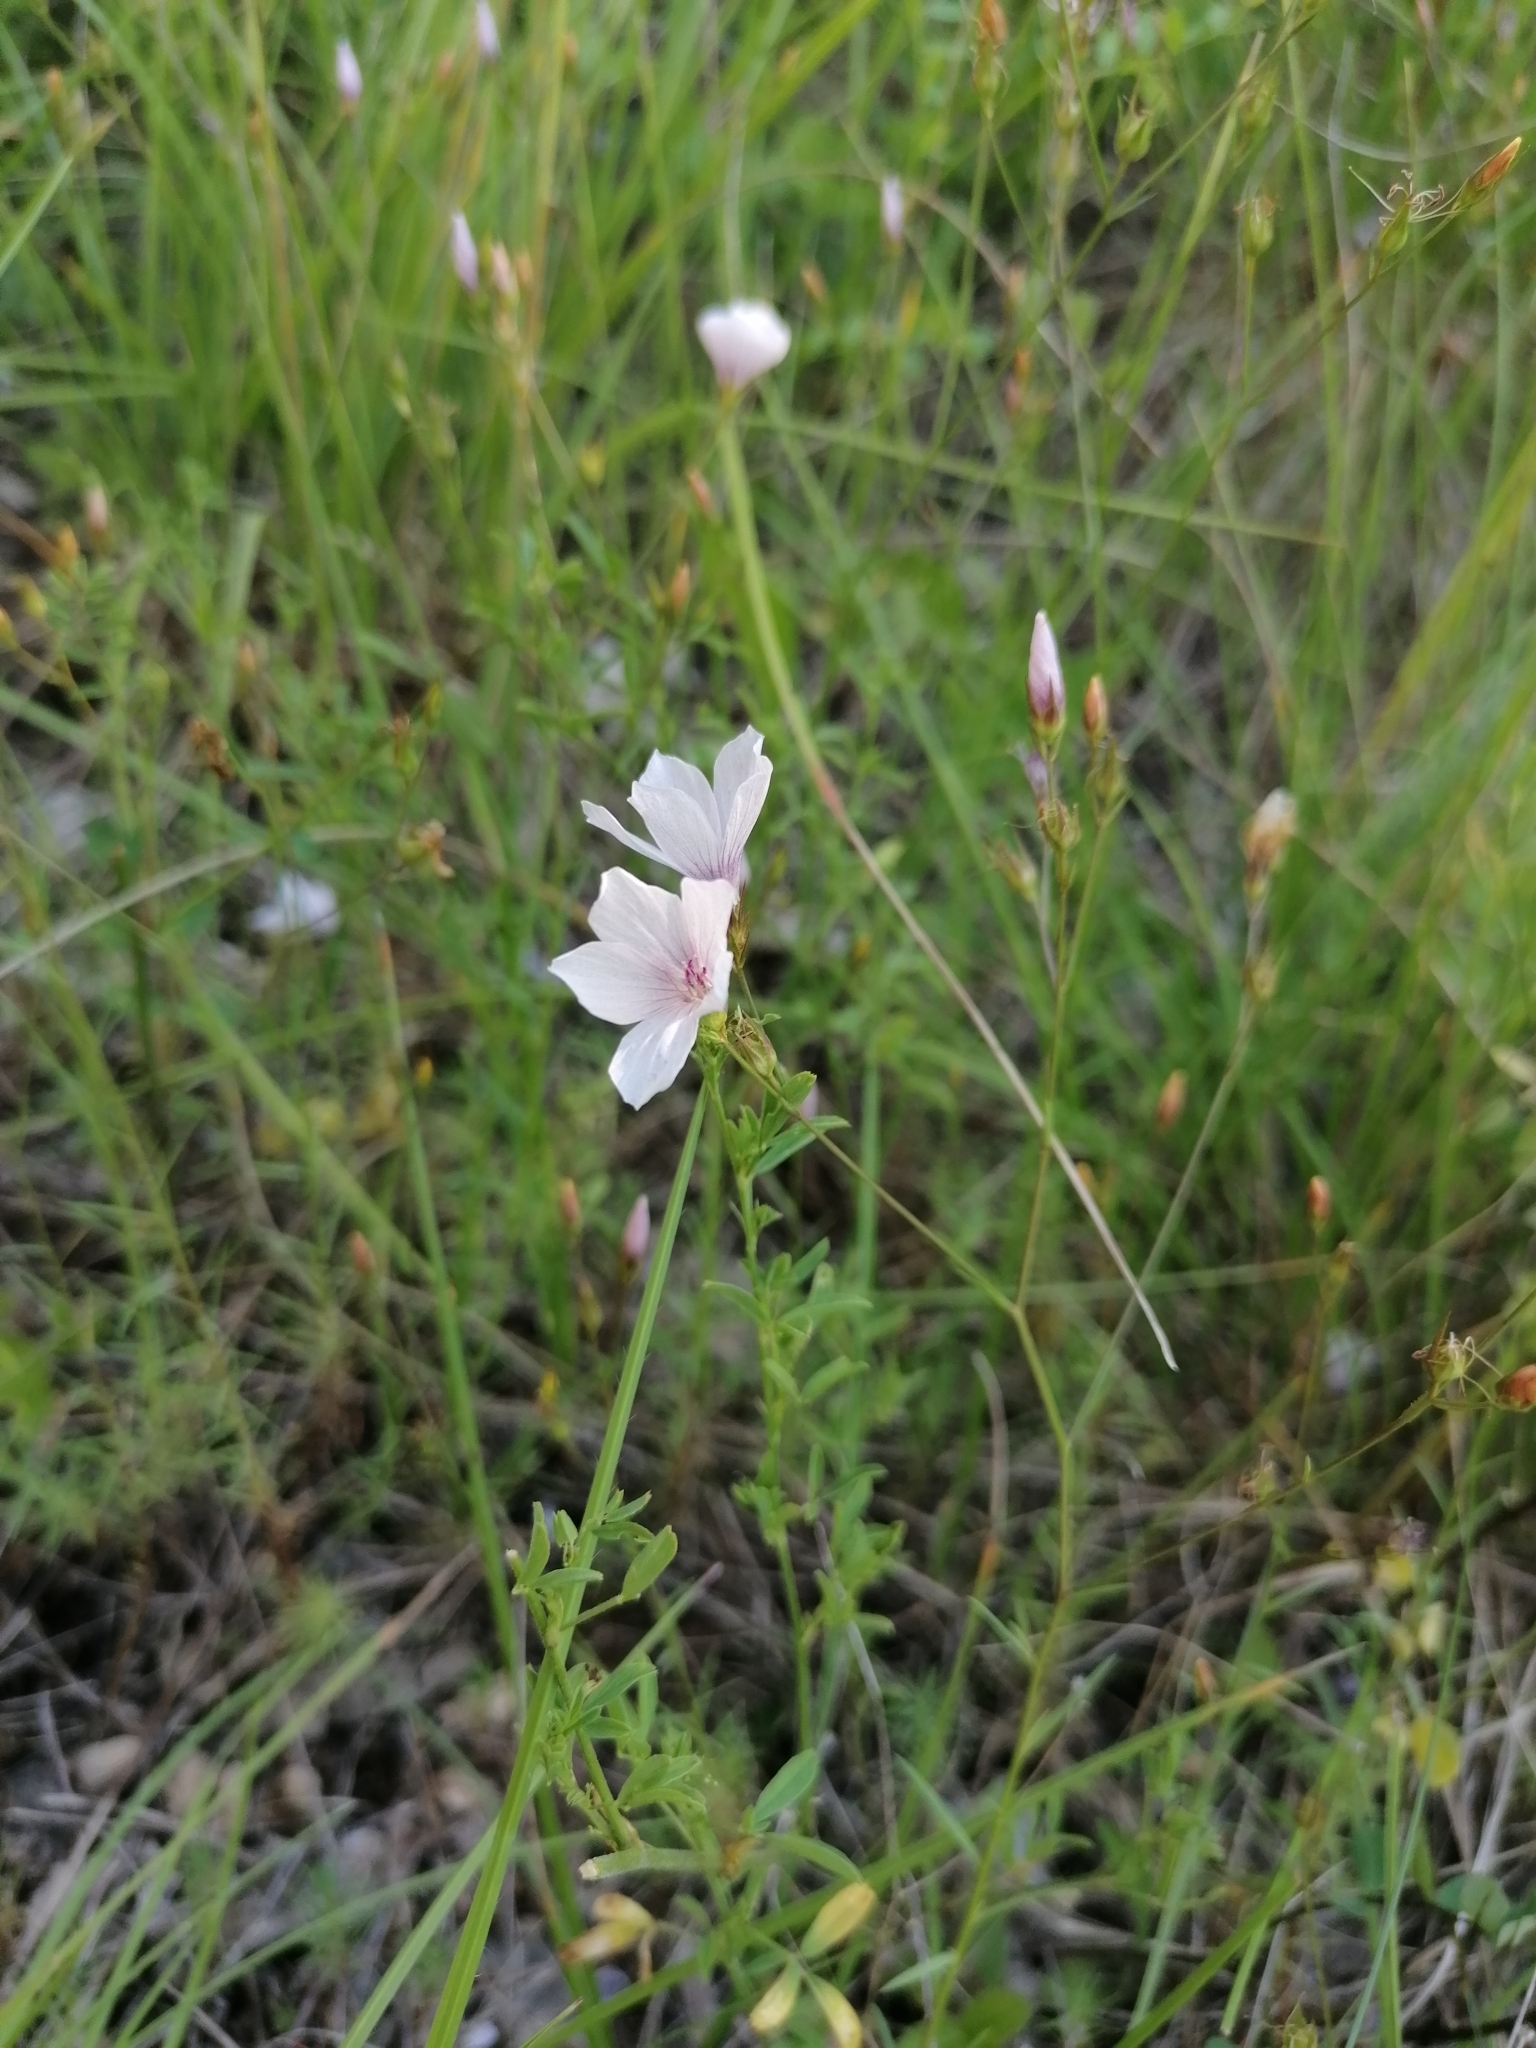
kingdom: Plantae
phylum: Tracheophyta
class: Magnoliopsida
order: Malpighiales
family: Linaceae
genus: Linum
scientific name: Linum tenuifolium
